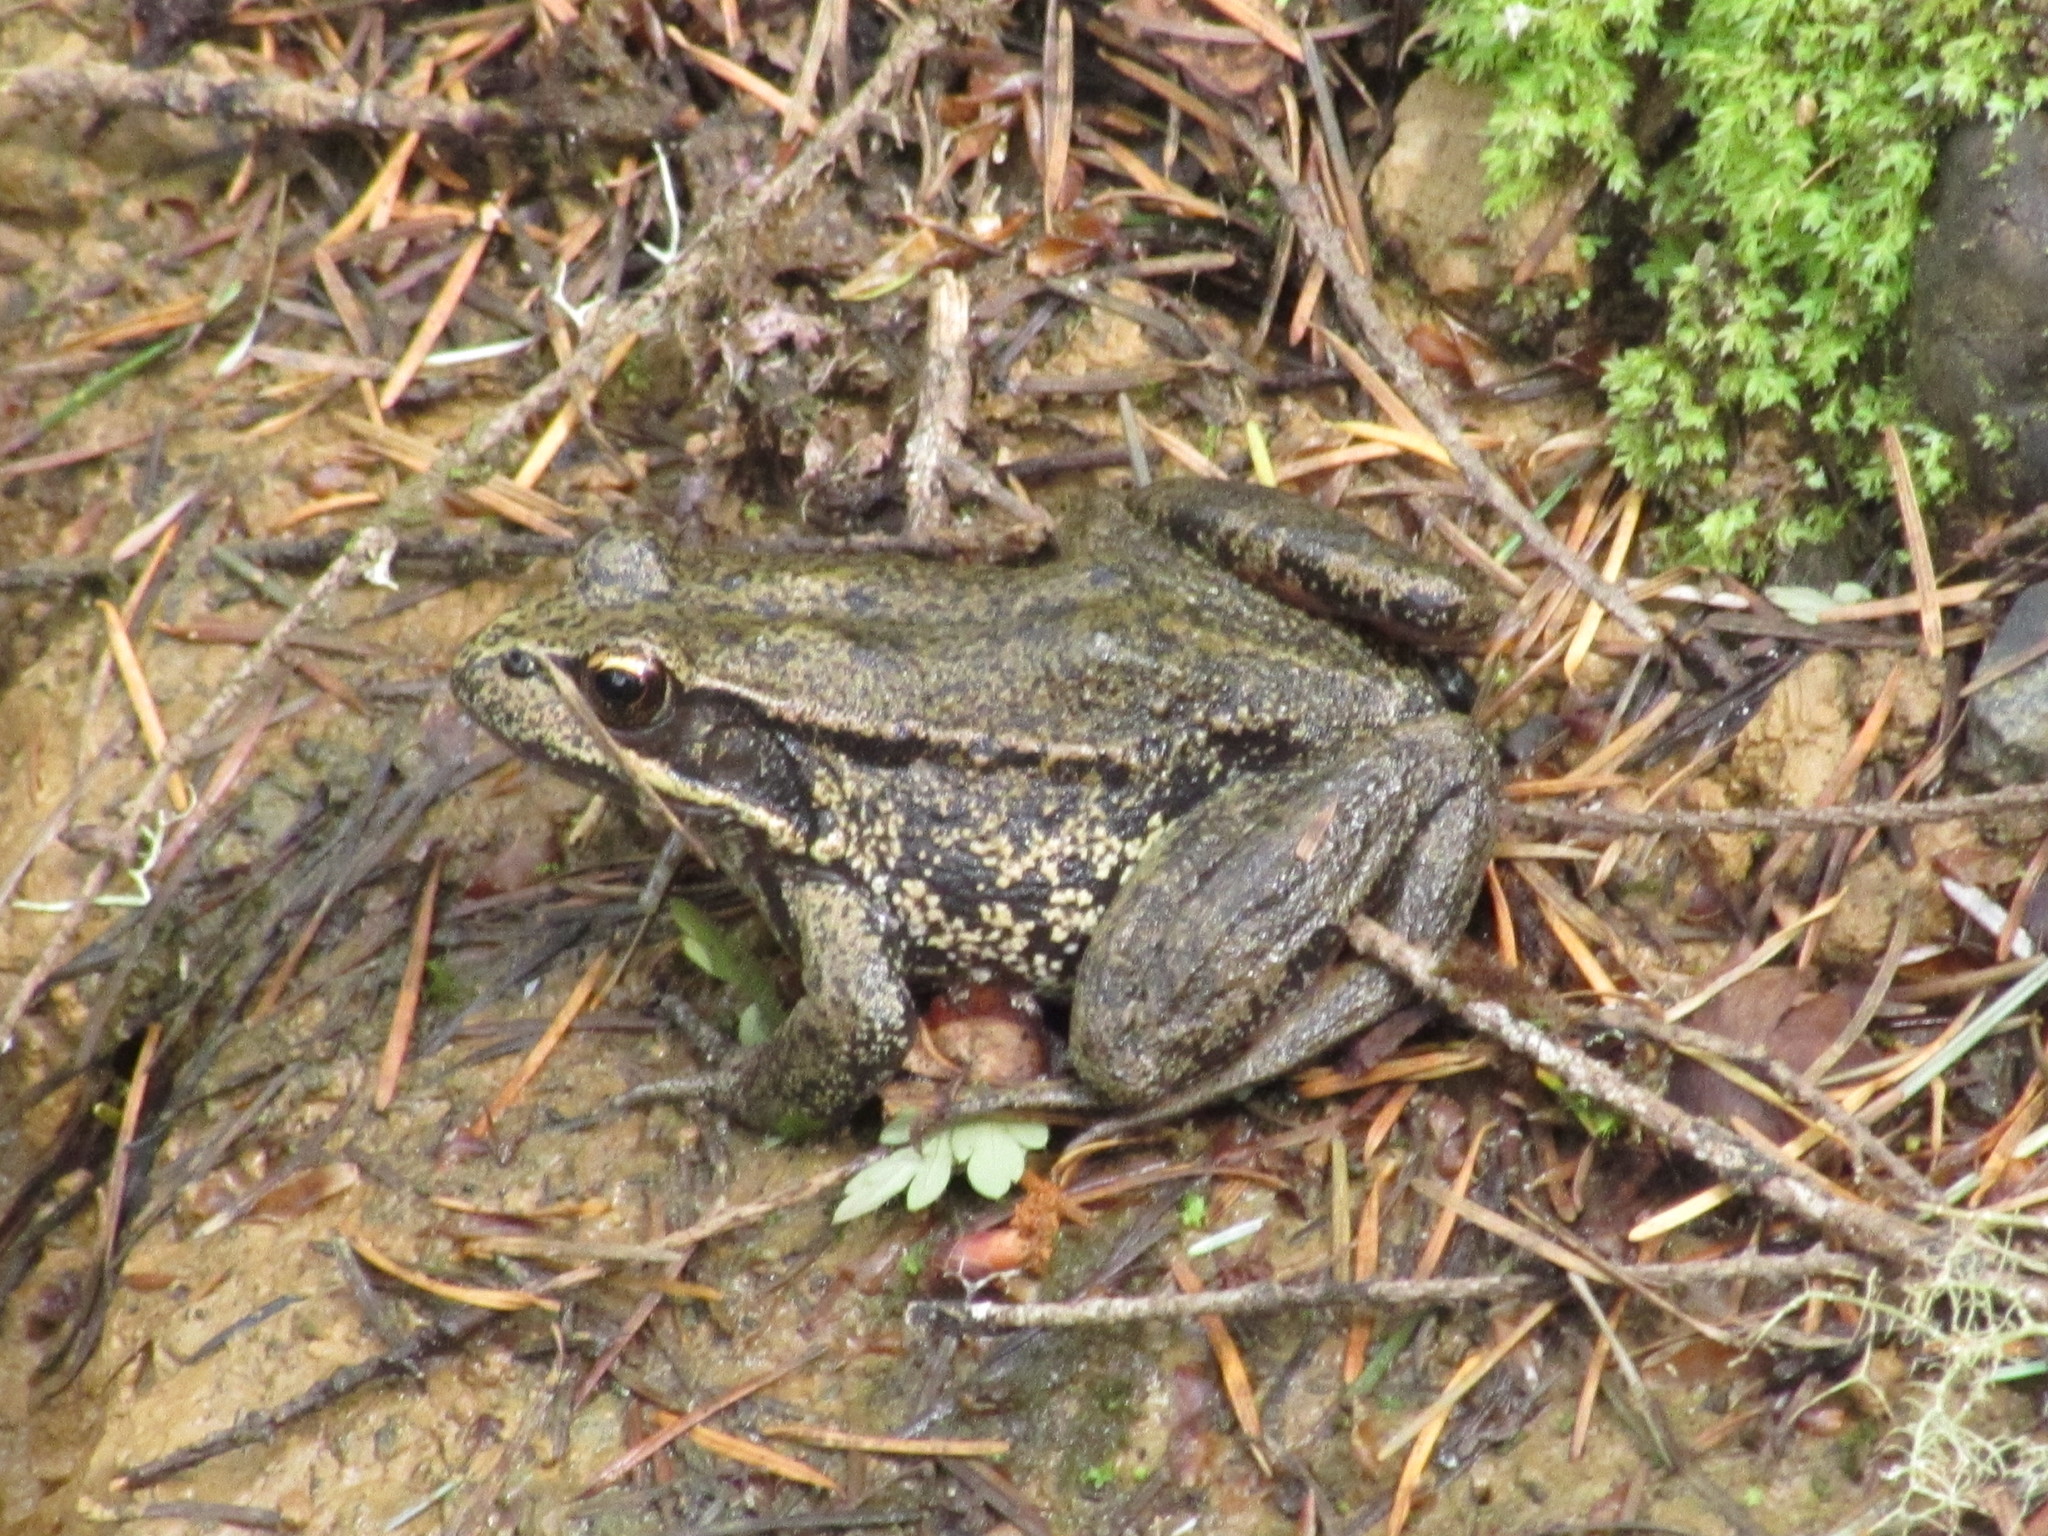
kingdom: Animalia
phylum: Chordata
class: Amphibia
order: Anura
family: Ranidae
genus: Rana
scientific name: Rana aurora
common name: Red-legged frog
